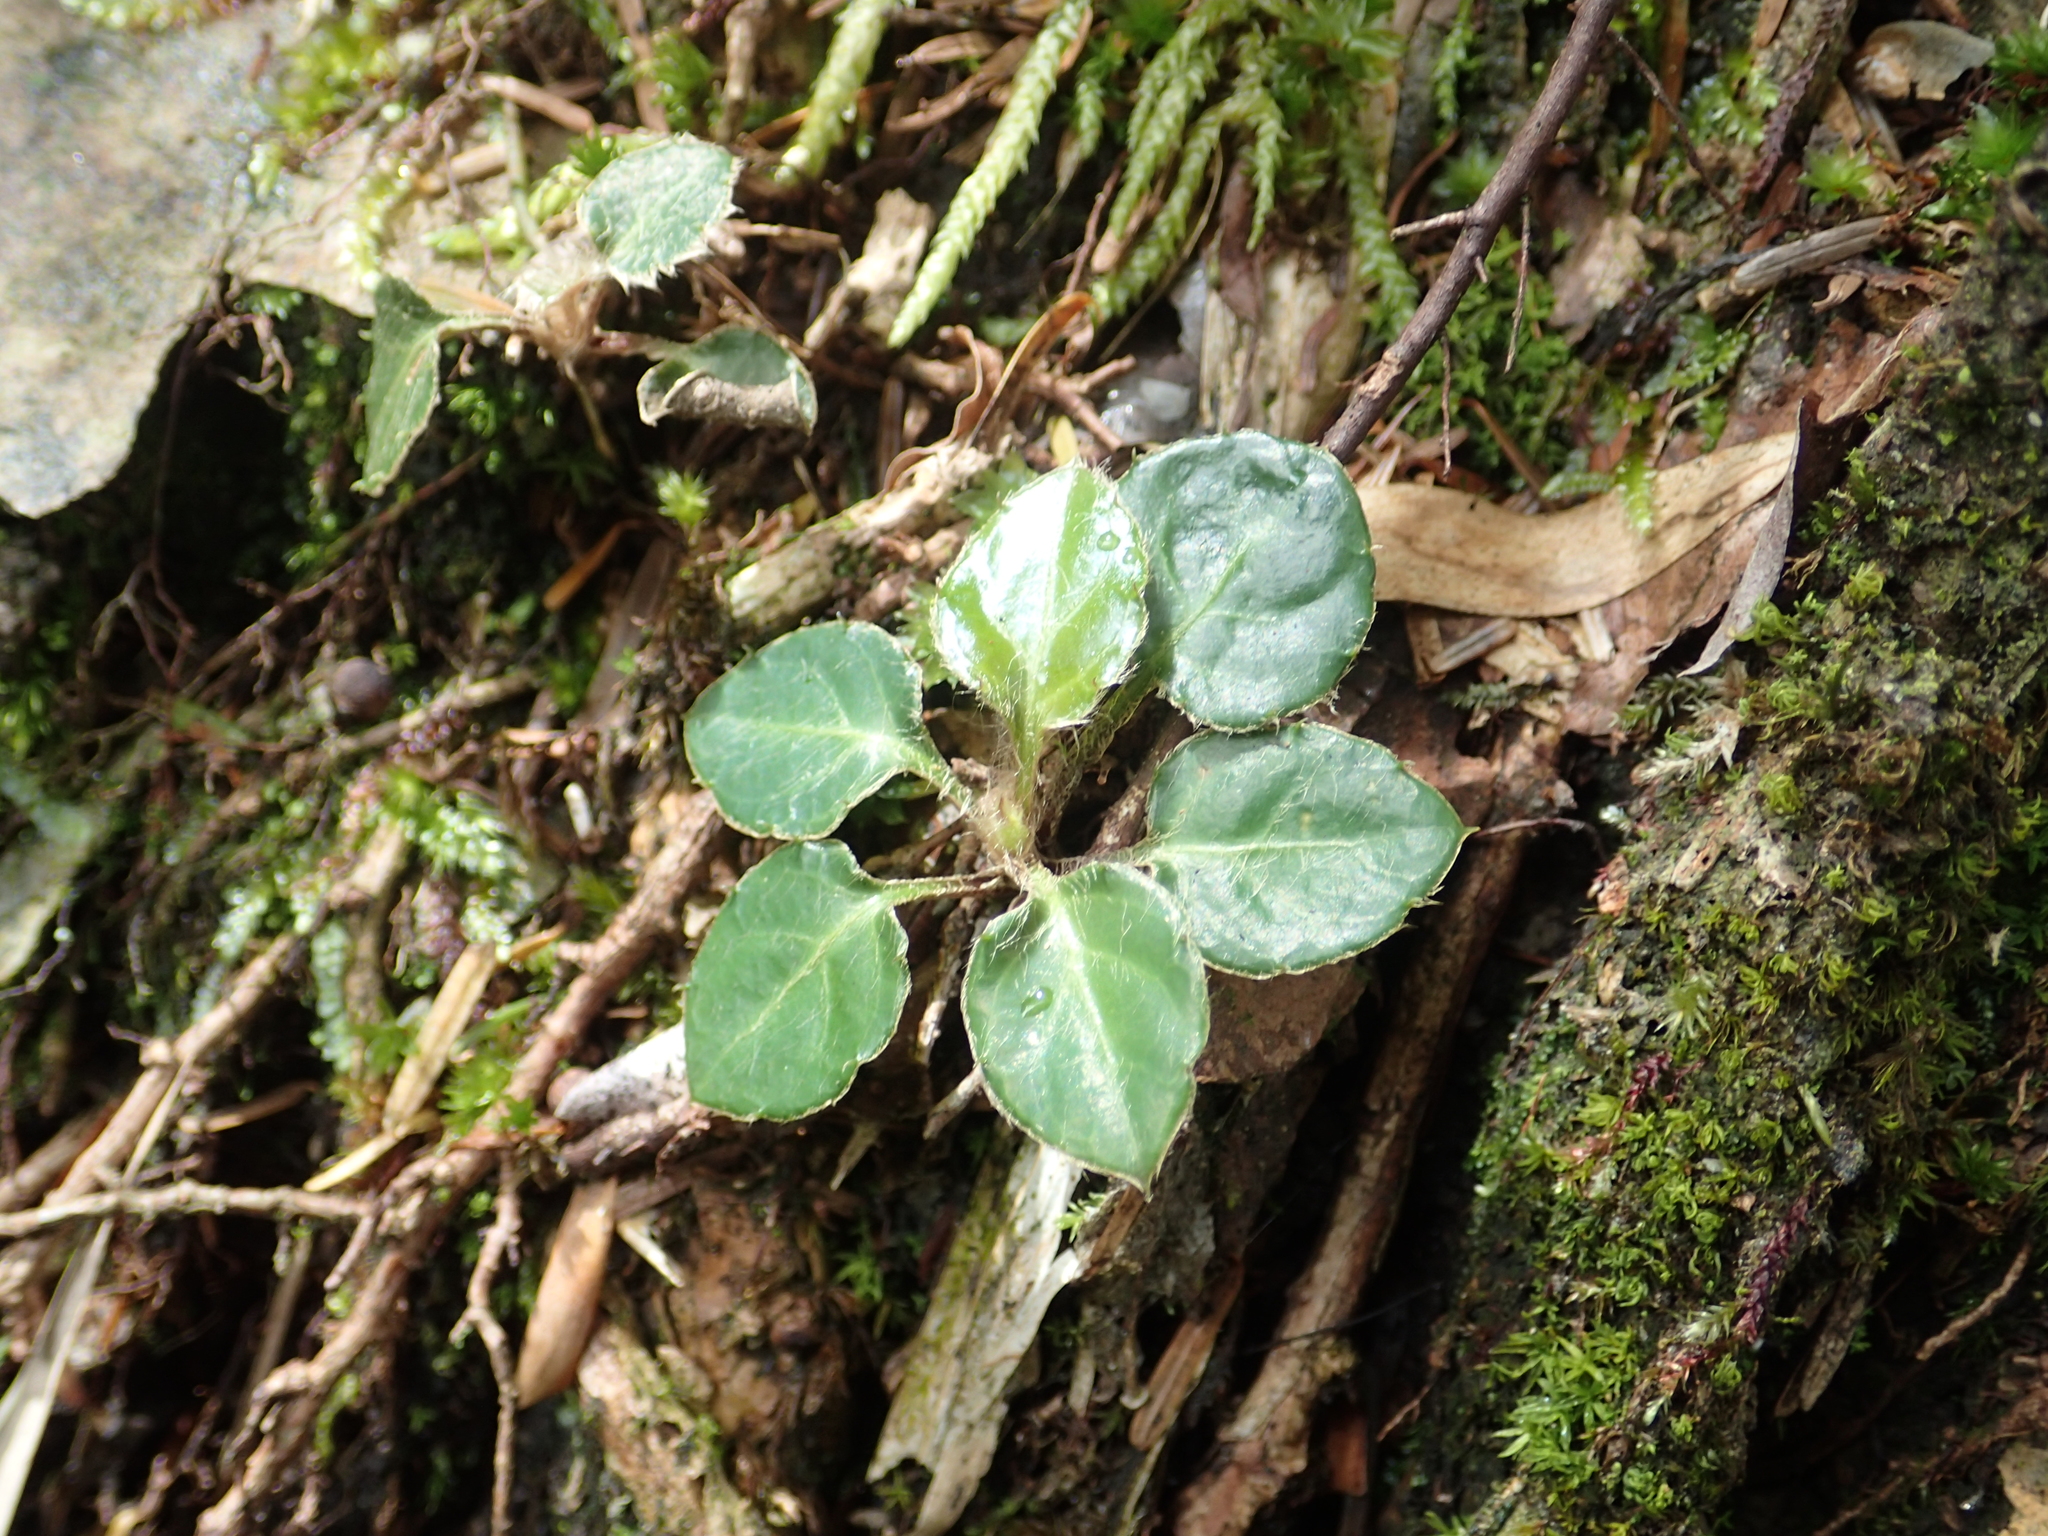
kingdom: Plantae
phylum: Tracheophyta
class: Magnoliopsida
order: Asterales
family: Asteraceae
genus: Ainsliaea
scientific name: Ainsliaea henryi
